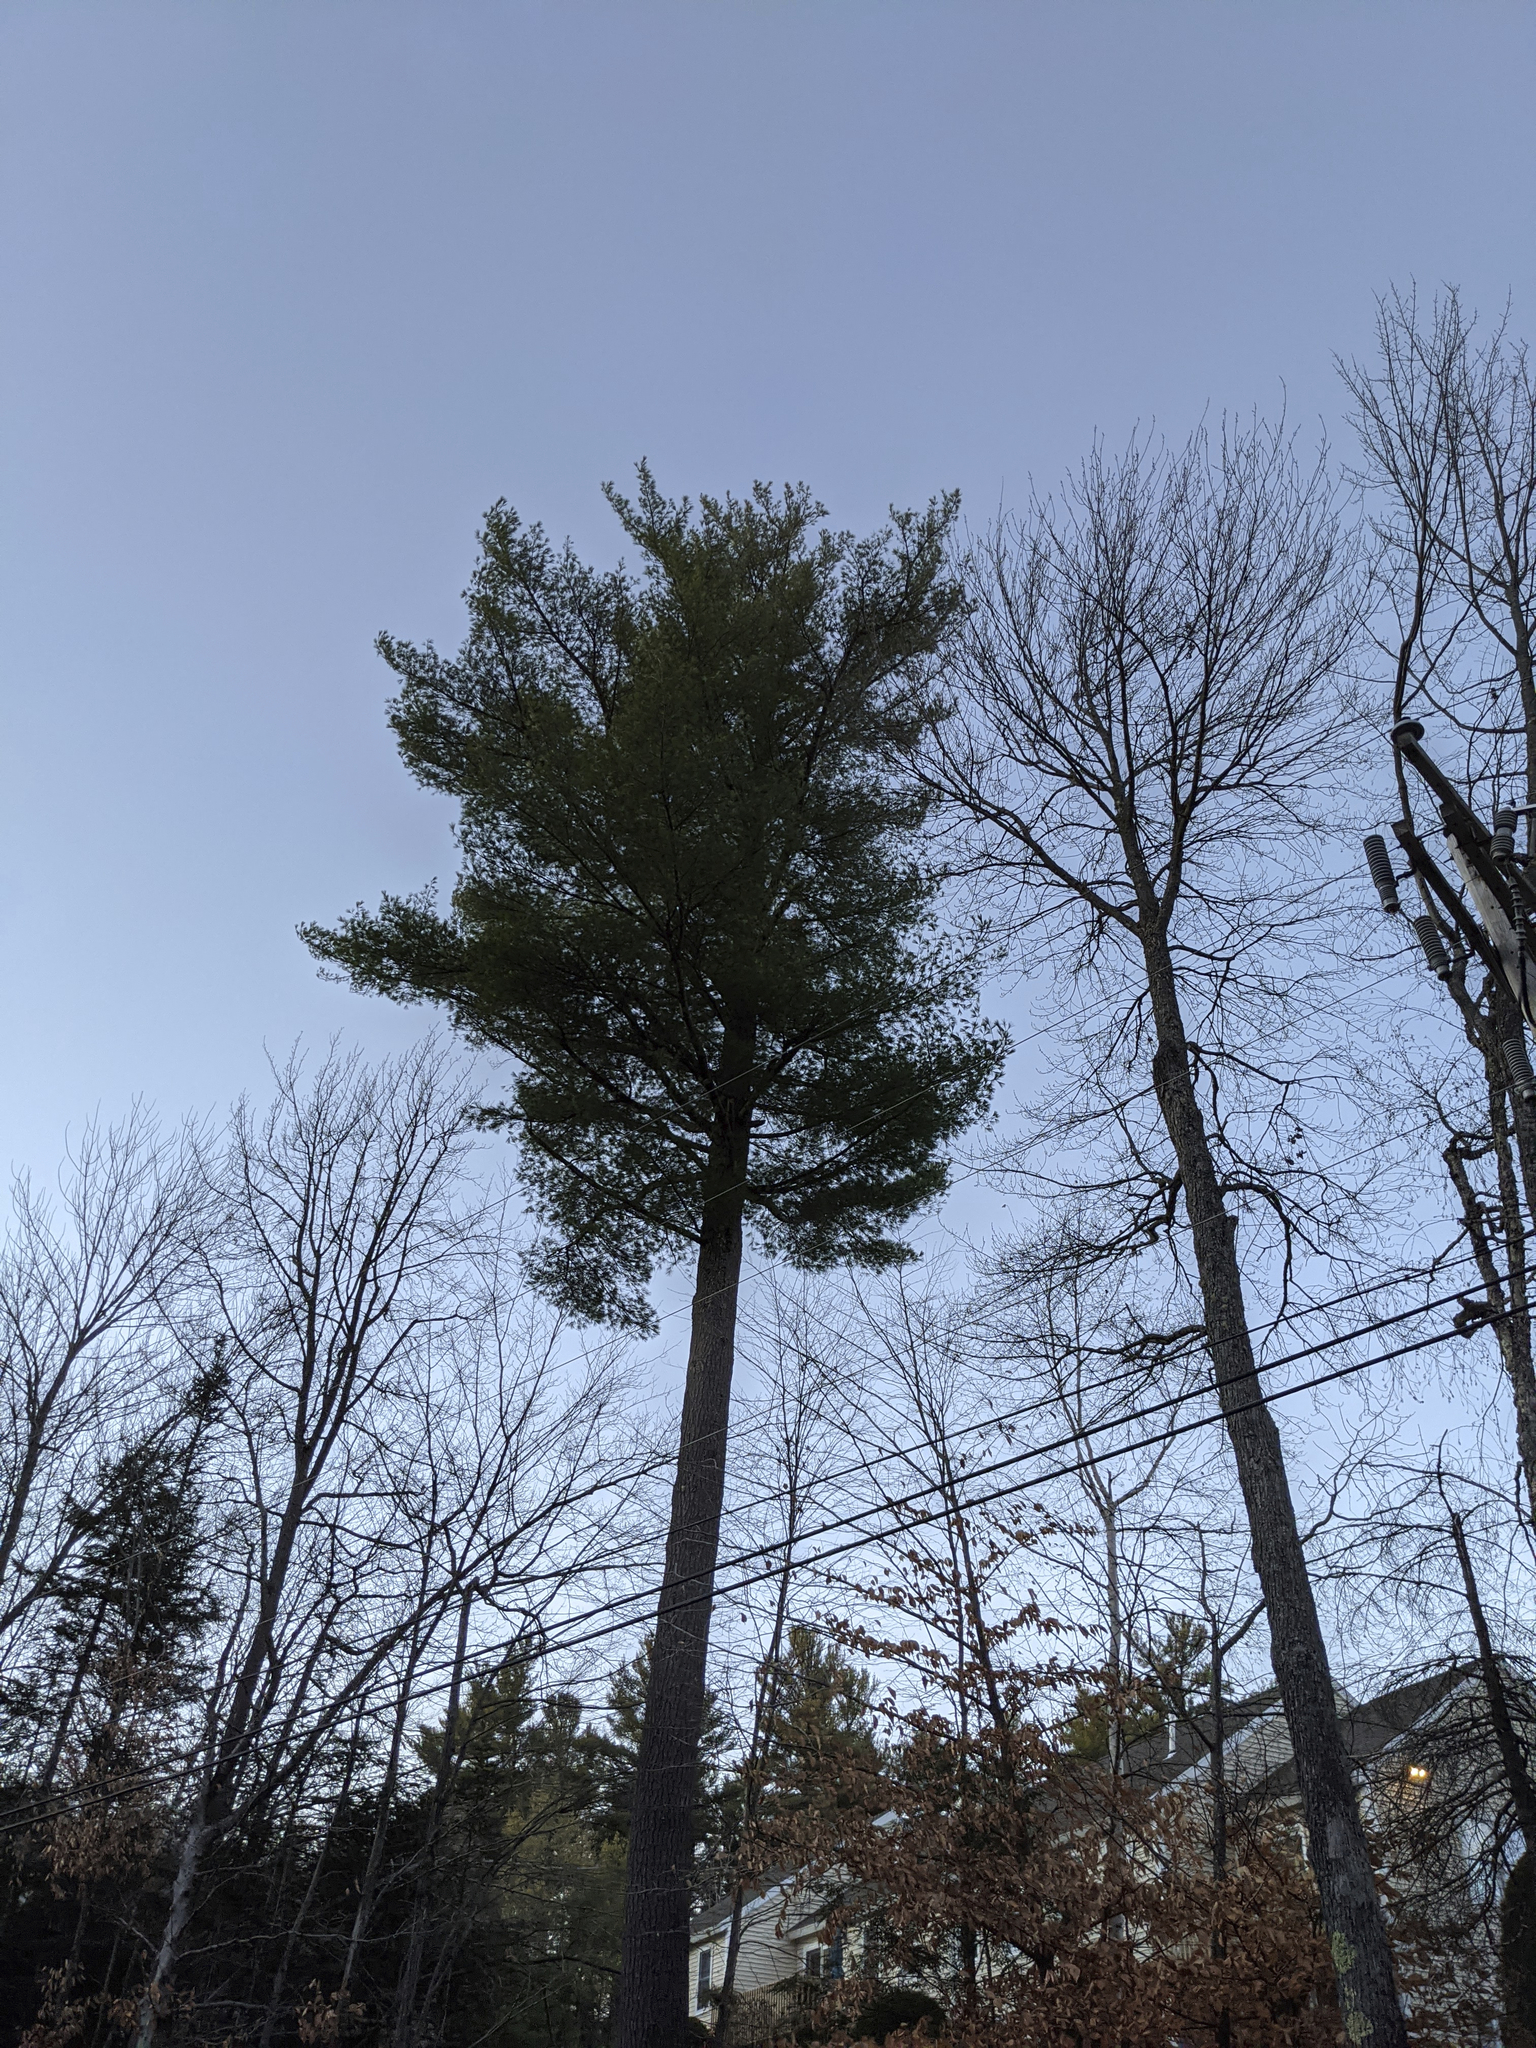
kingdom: Plantae
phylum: Tracheophyta
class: Pinopsida
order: Pinales
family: Pinaceae
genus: Pinus
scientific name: Pinus strobus
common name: Weymouth pine
